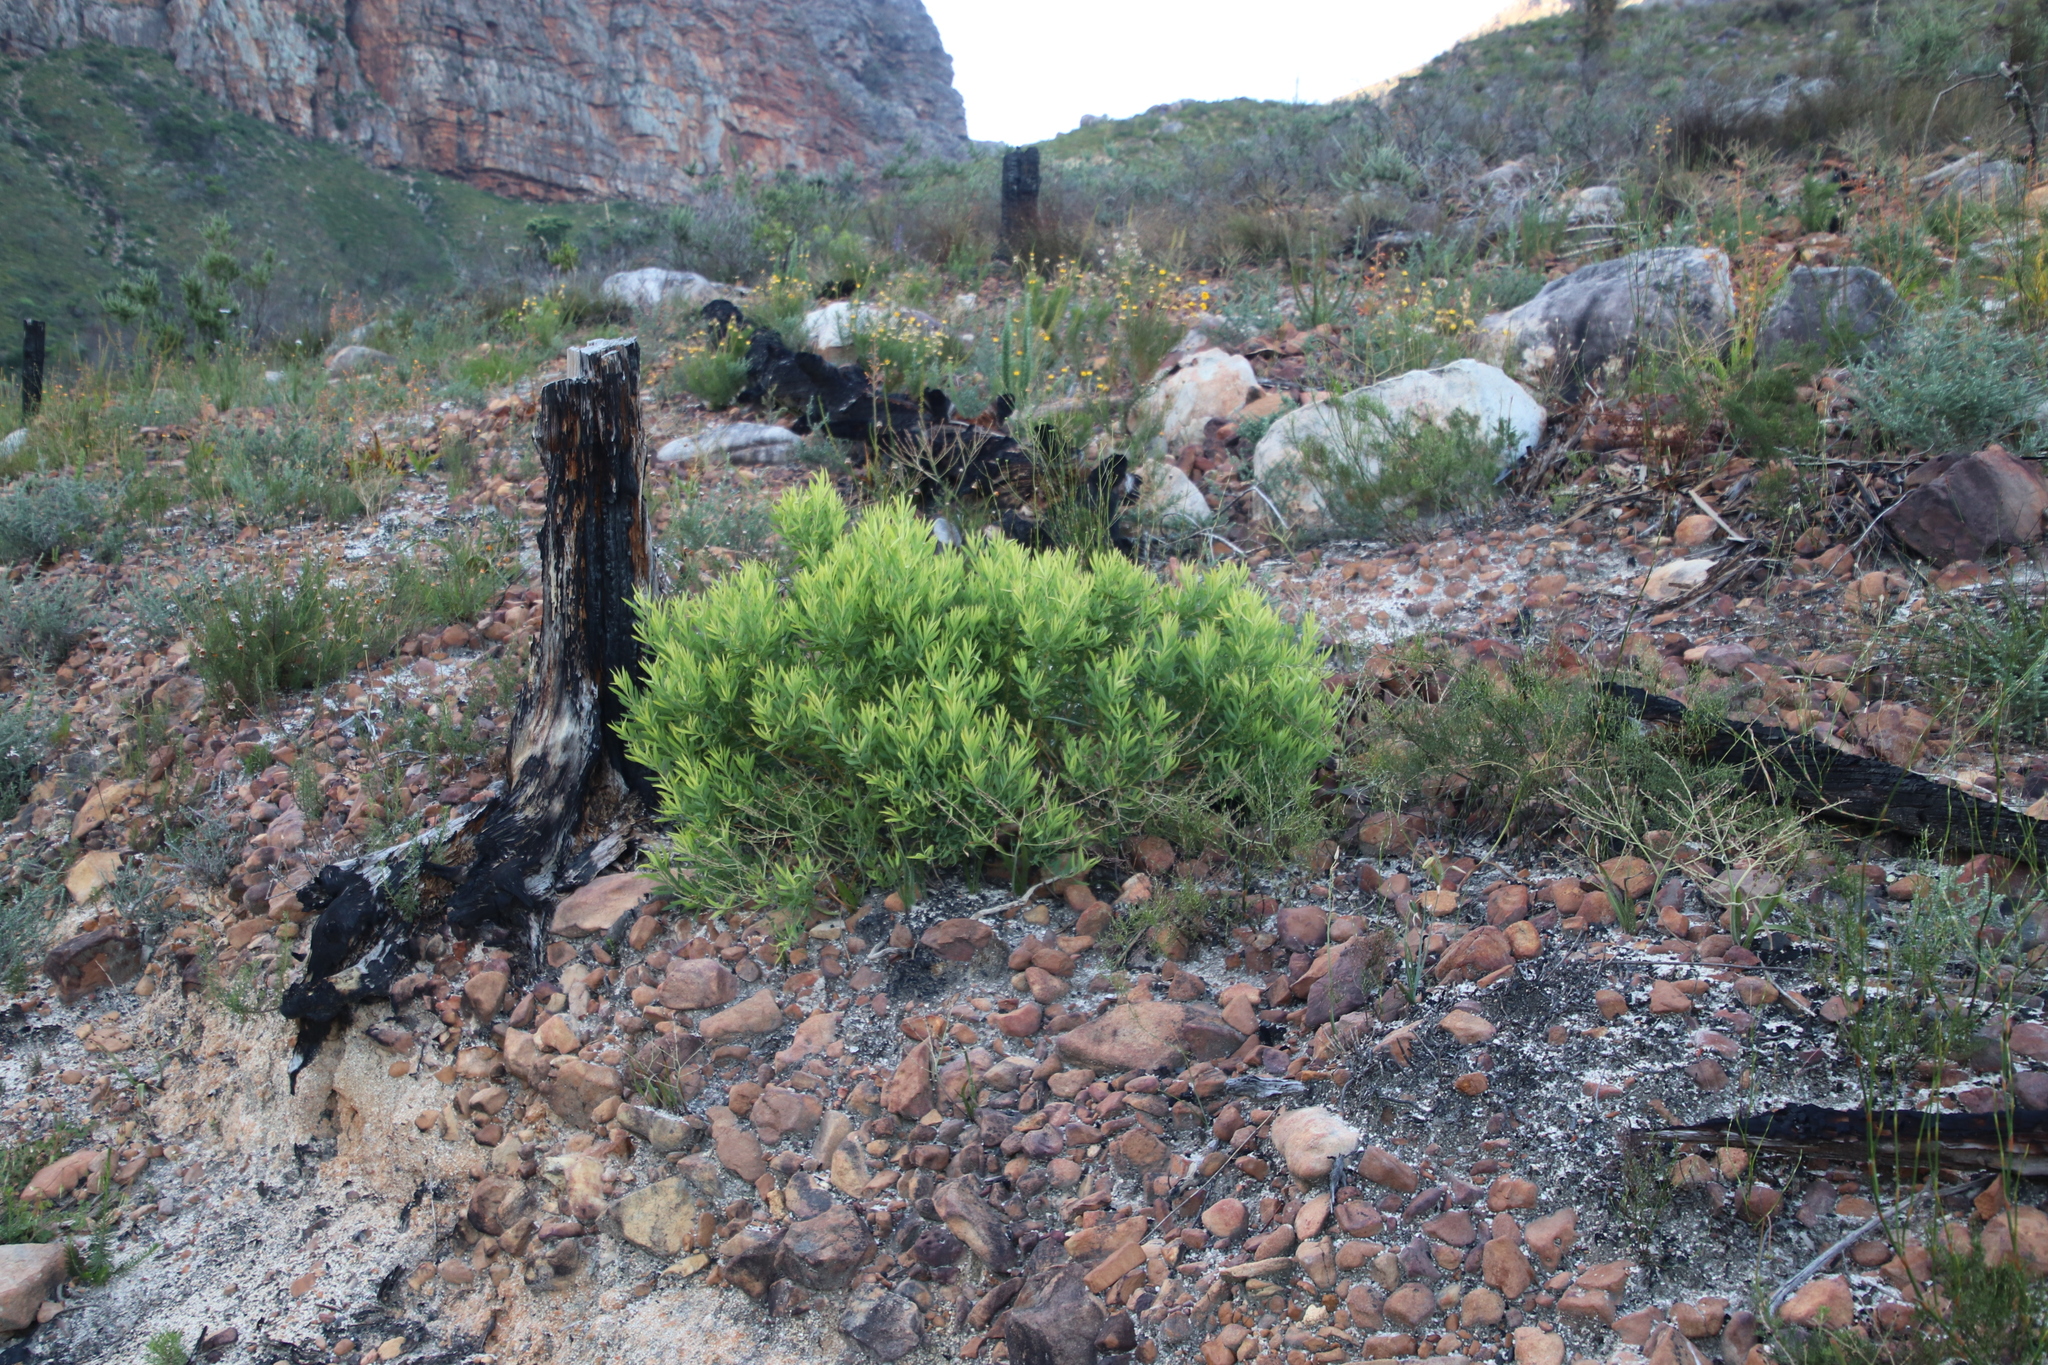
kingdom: Plantae
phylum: Tracheophyta
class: Magnoliopsida
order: Proteales
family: Proteaceae
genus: Leucadendron
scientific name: Leucadendron salignum
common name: Common sunshine conebush
